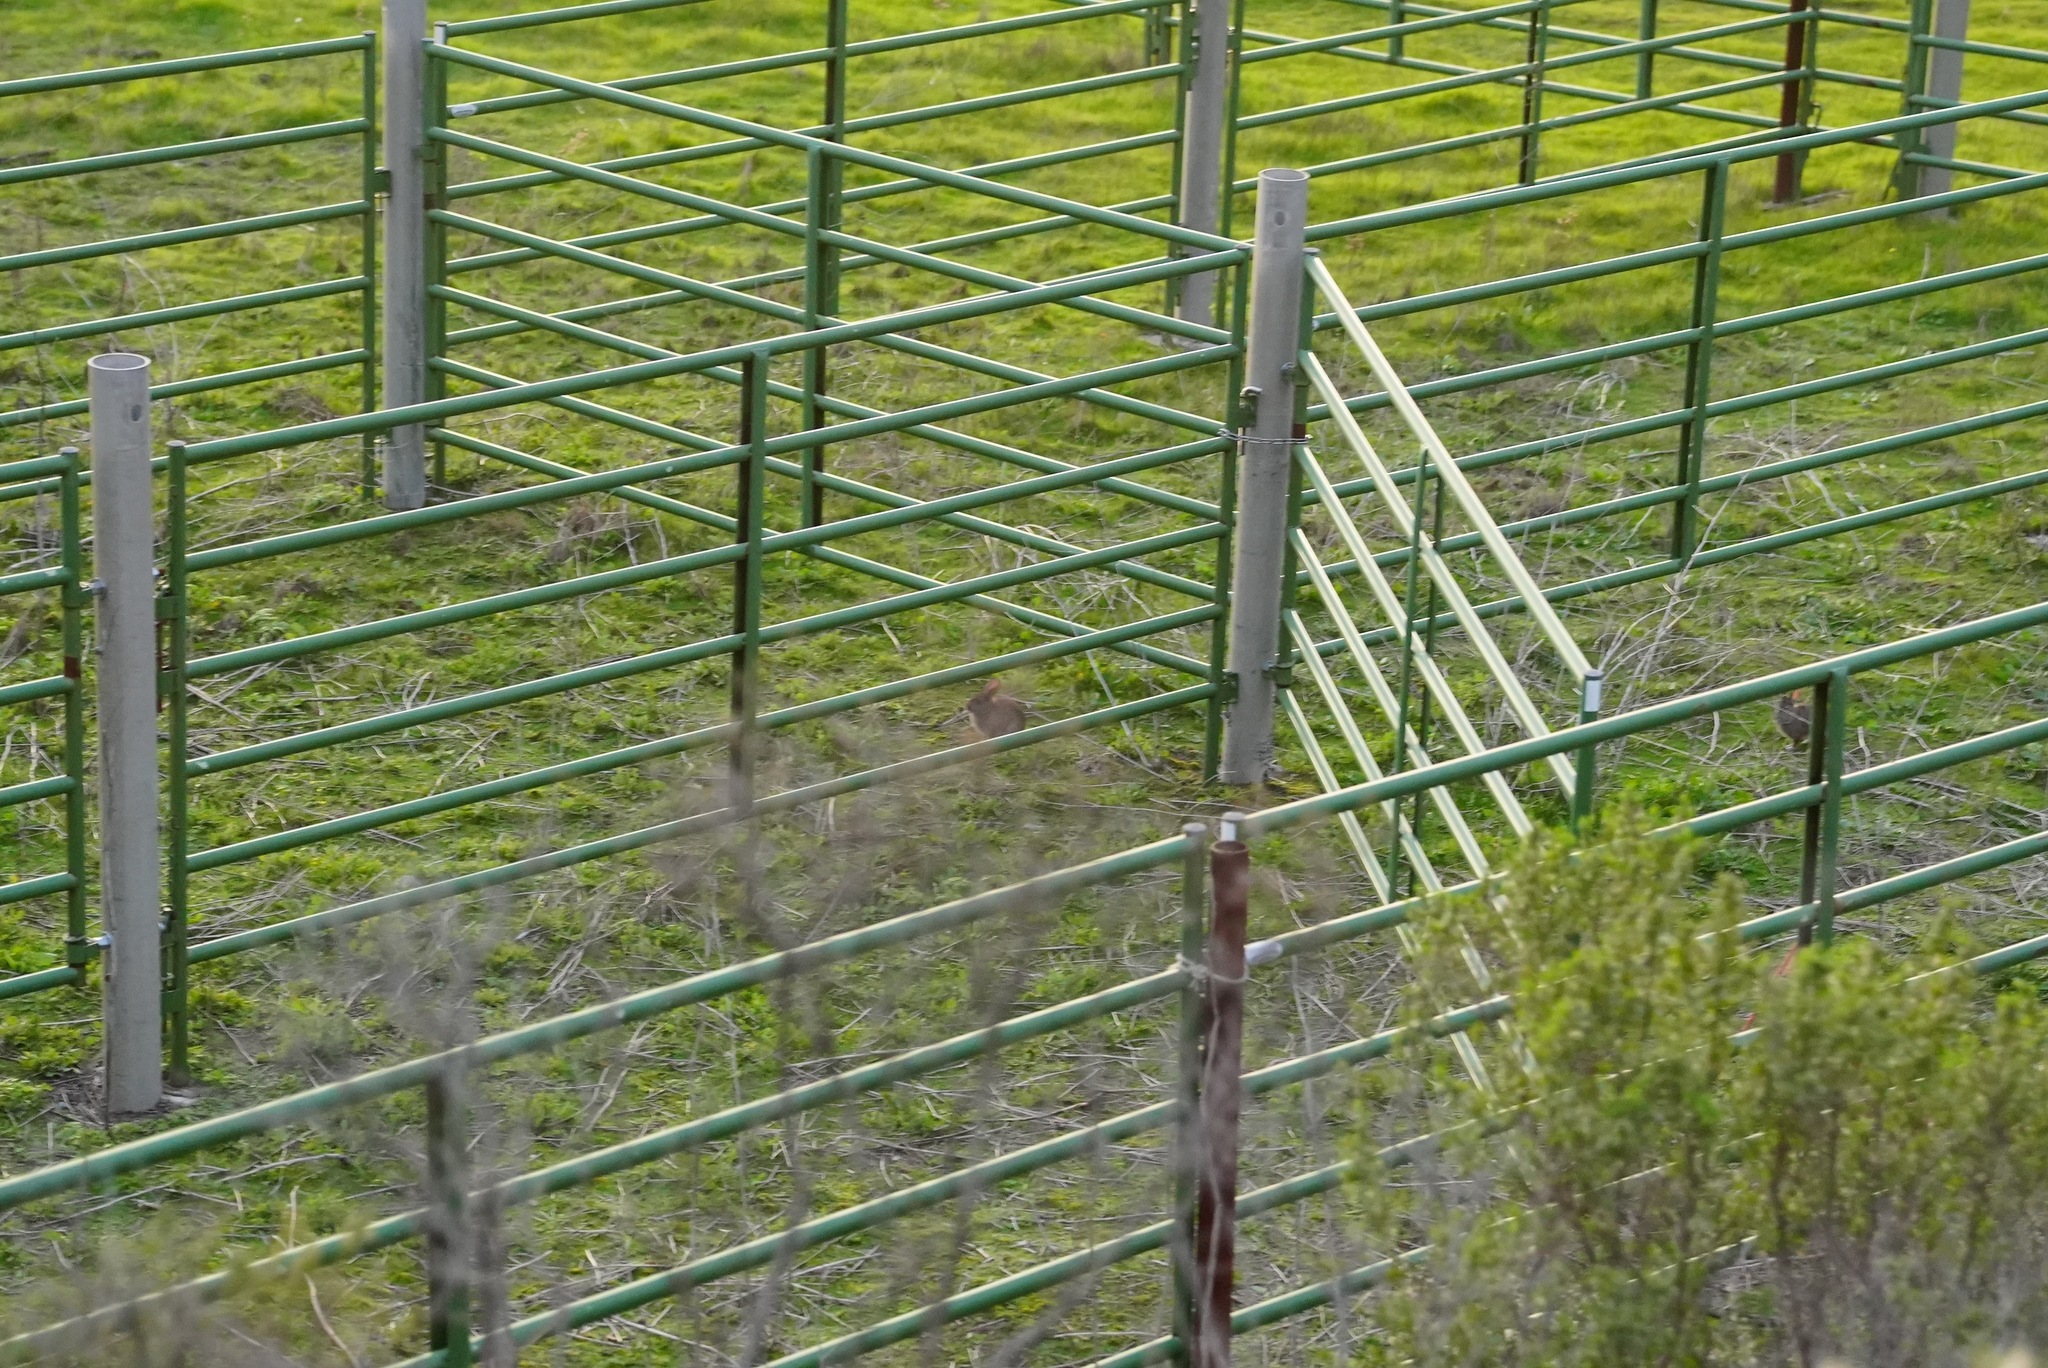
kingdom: Animalia
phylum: Chordata
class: Mammalia
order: Lagomorpha
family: Leporidae
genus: Sylvilagus
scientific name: Sylvilagus bachmani
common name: Brush rabbit
